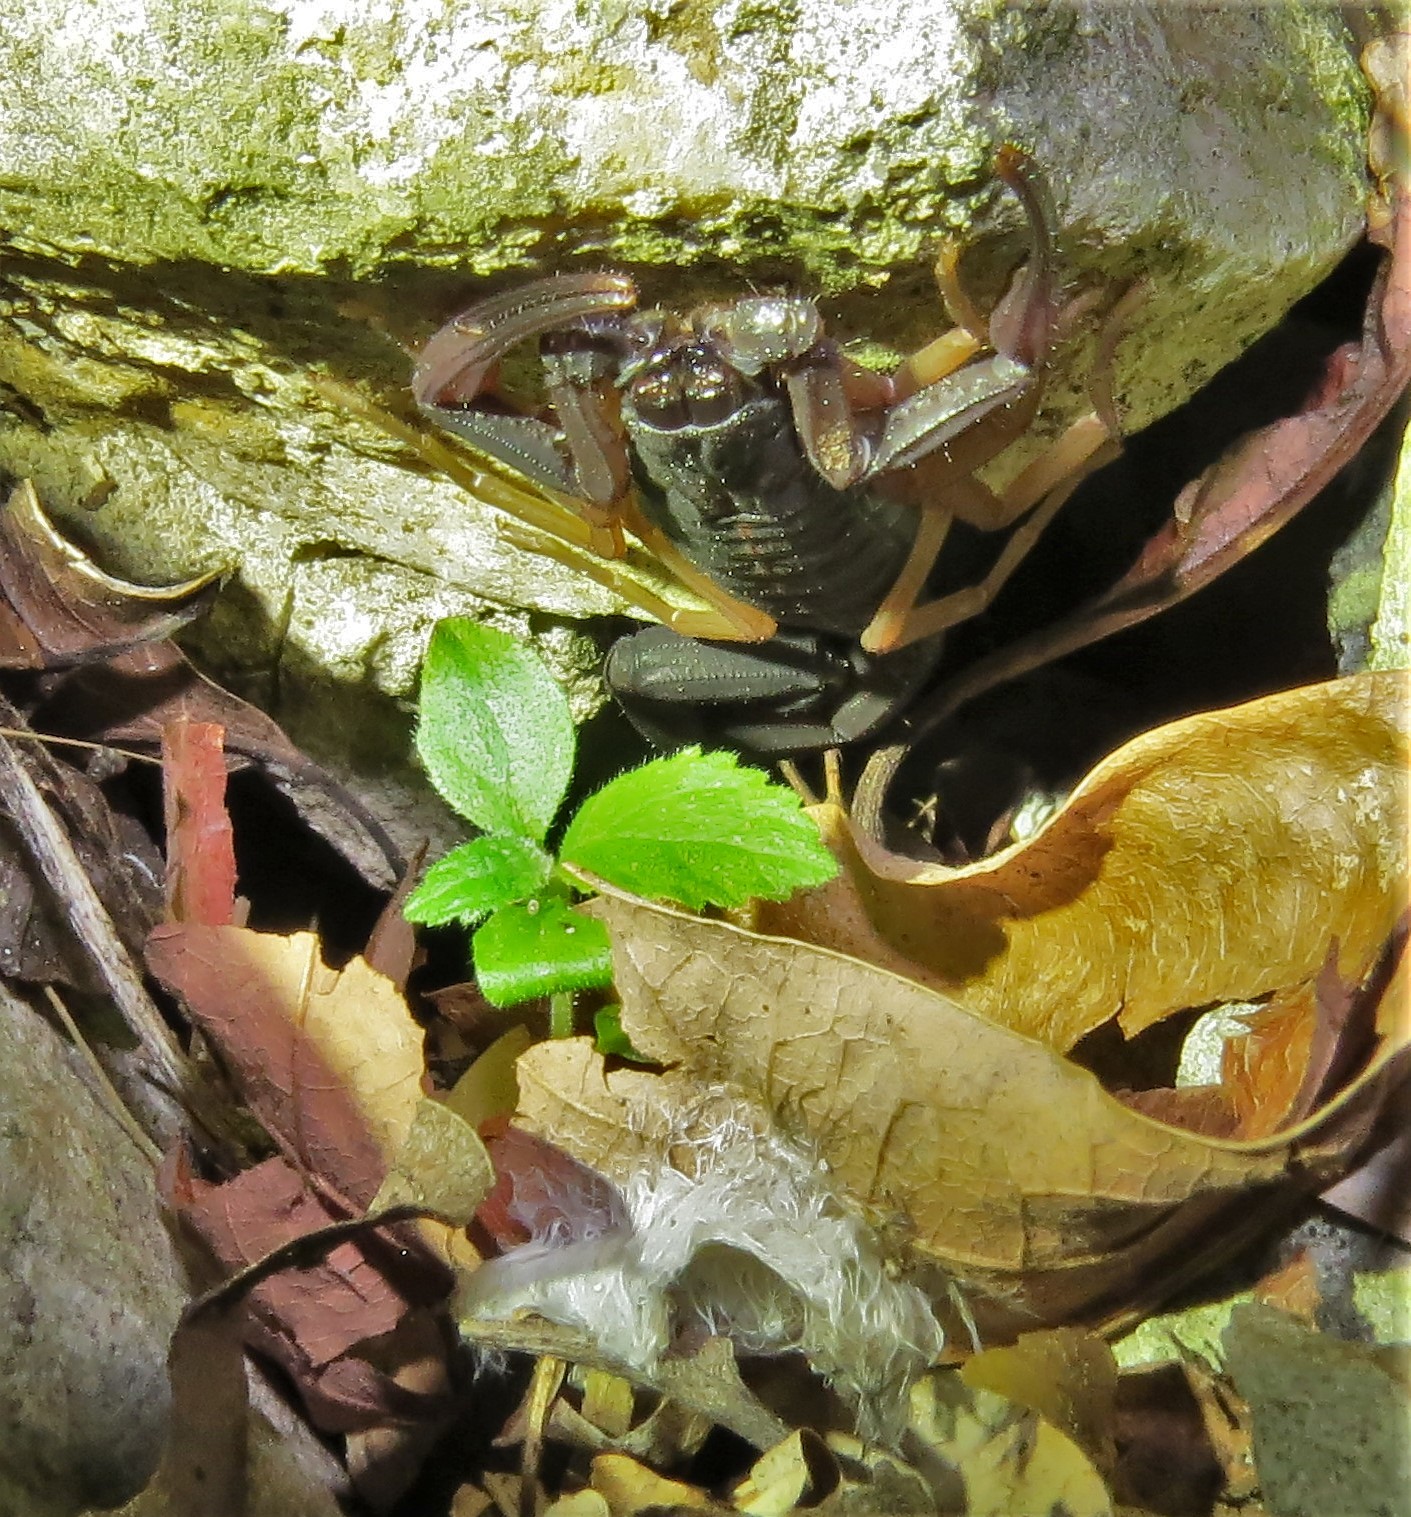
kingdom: Animalia
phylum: Arthropoda
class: Arachnida
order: Scorpiones
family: Buthidae
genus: Centruroides
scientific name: Centruroides gracilis
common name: Scorpions
